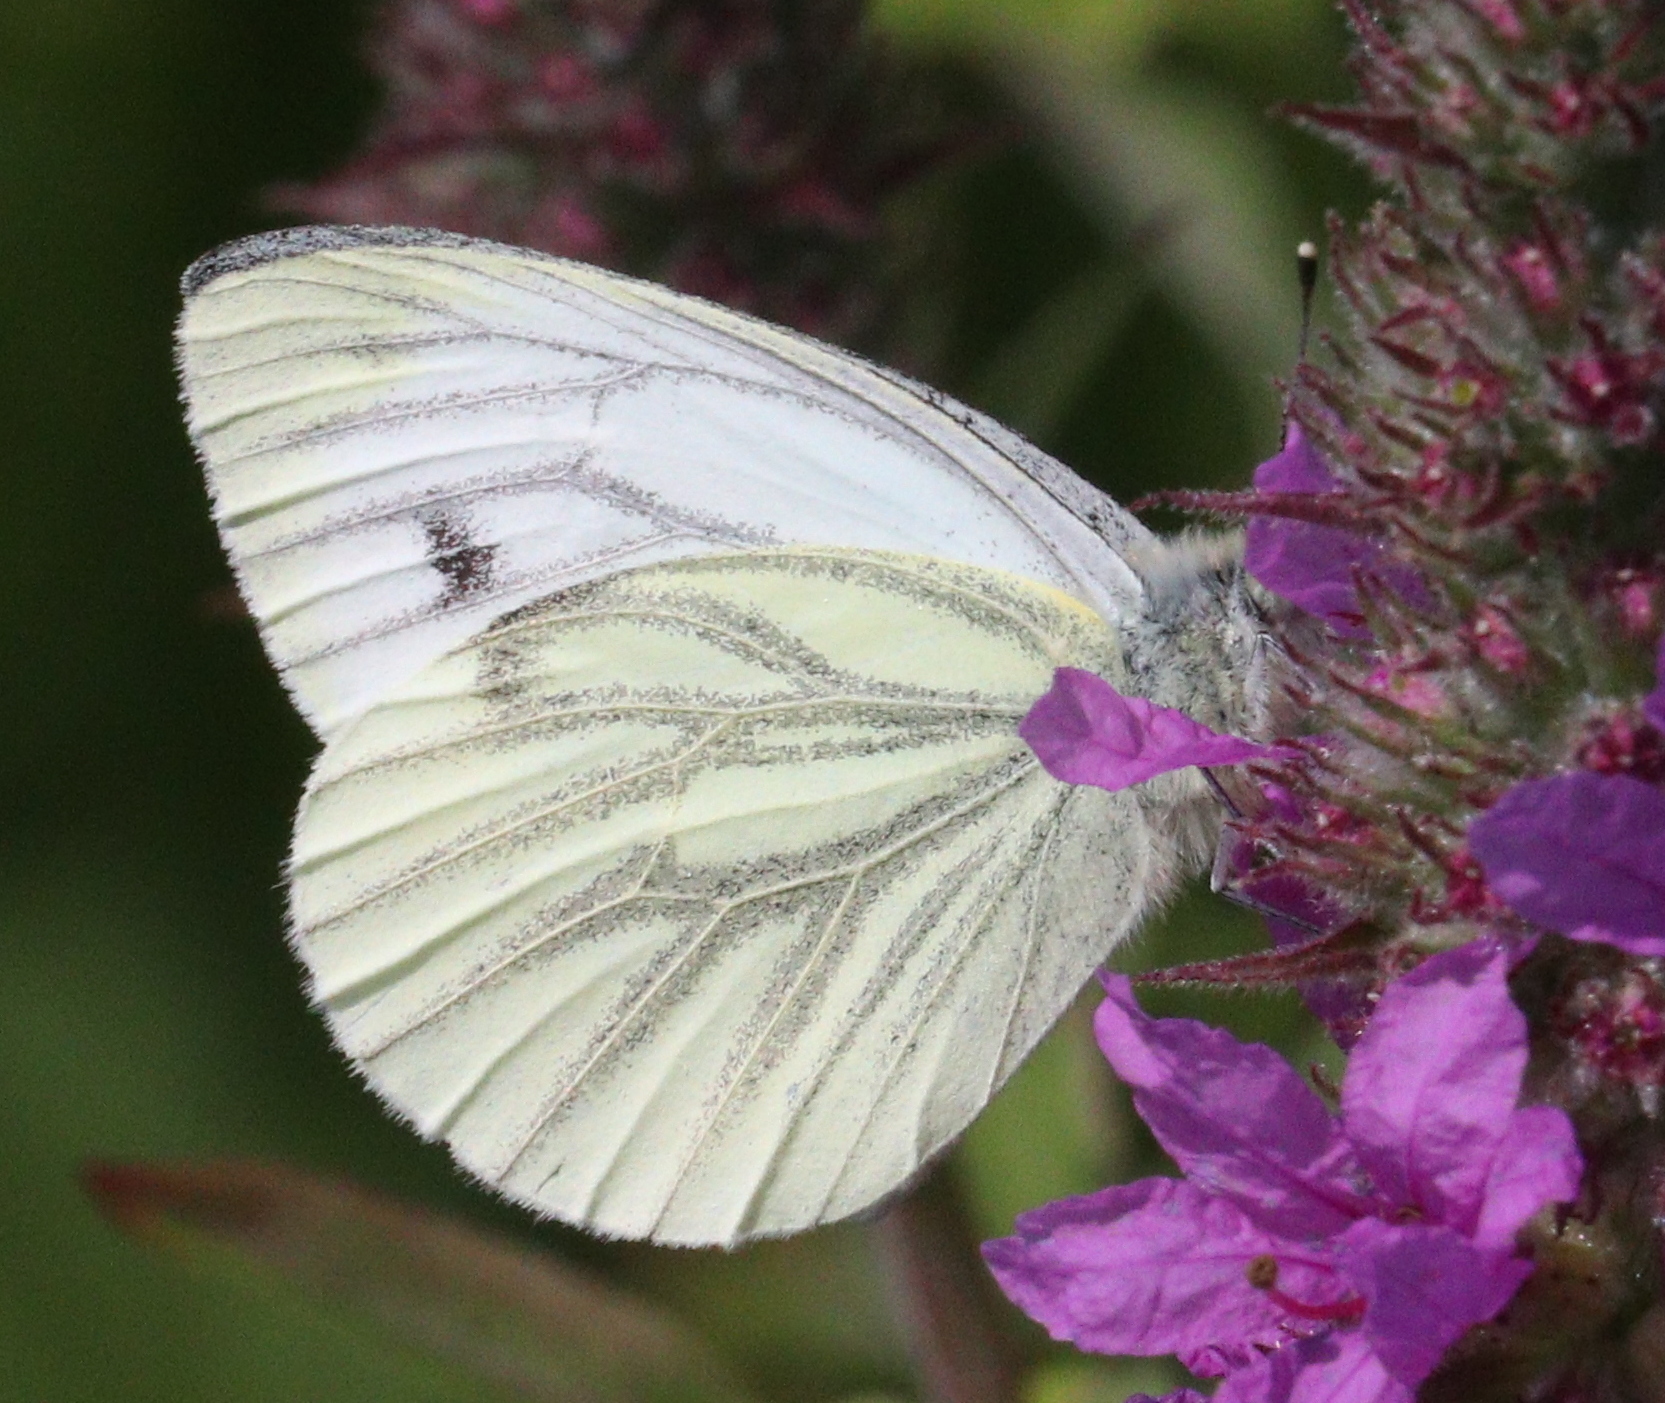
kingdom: Animalia
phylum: Arthropoda
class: Insecta
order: Lepidoptera
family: Pieridae
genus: Pieris
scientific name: Pieris napi
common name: Green-veined white
